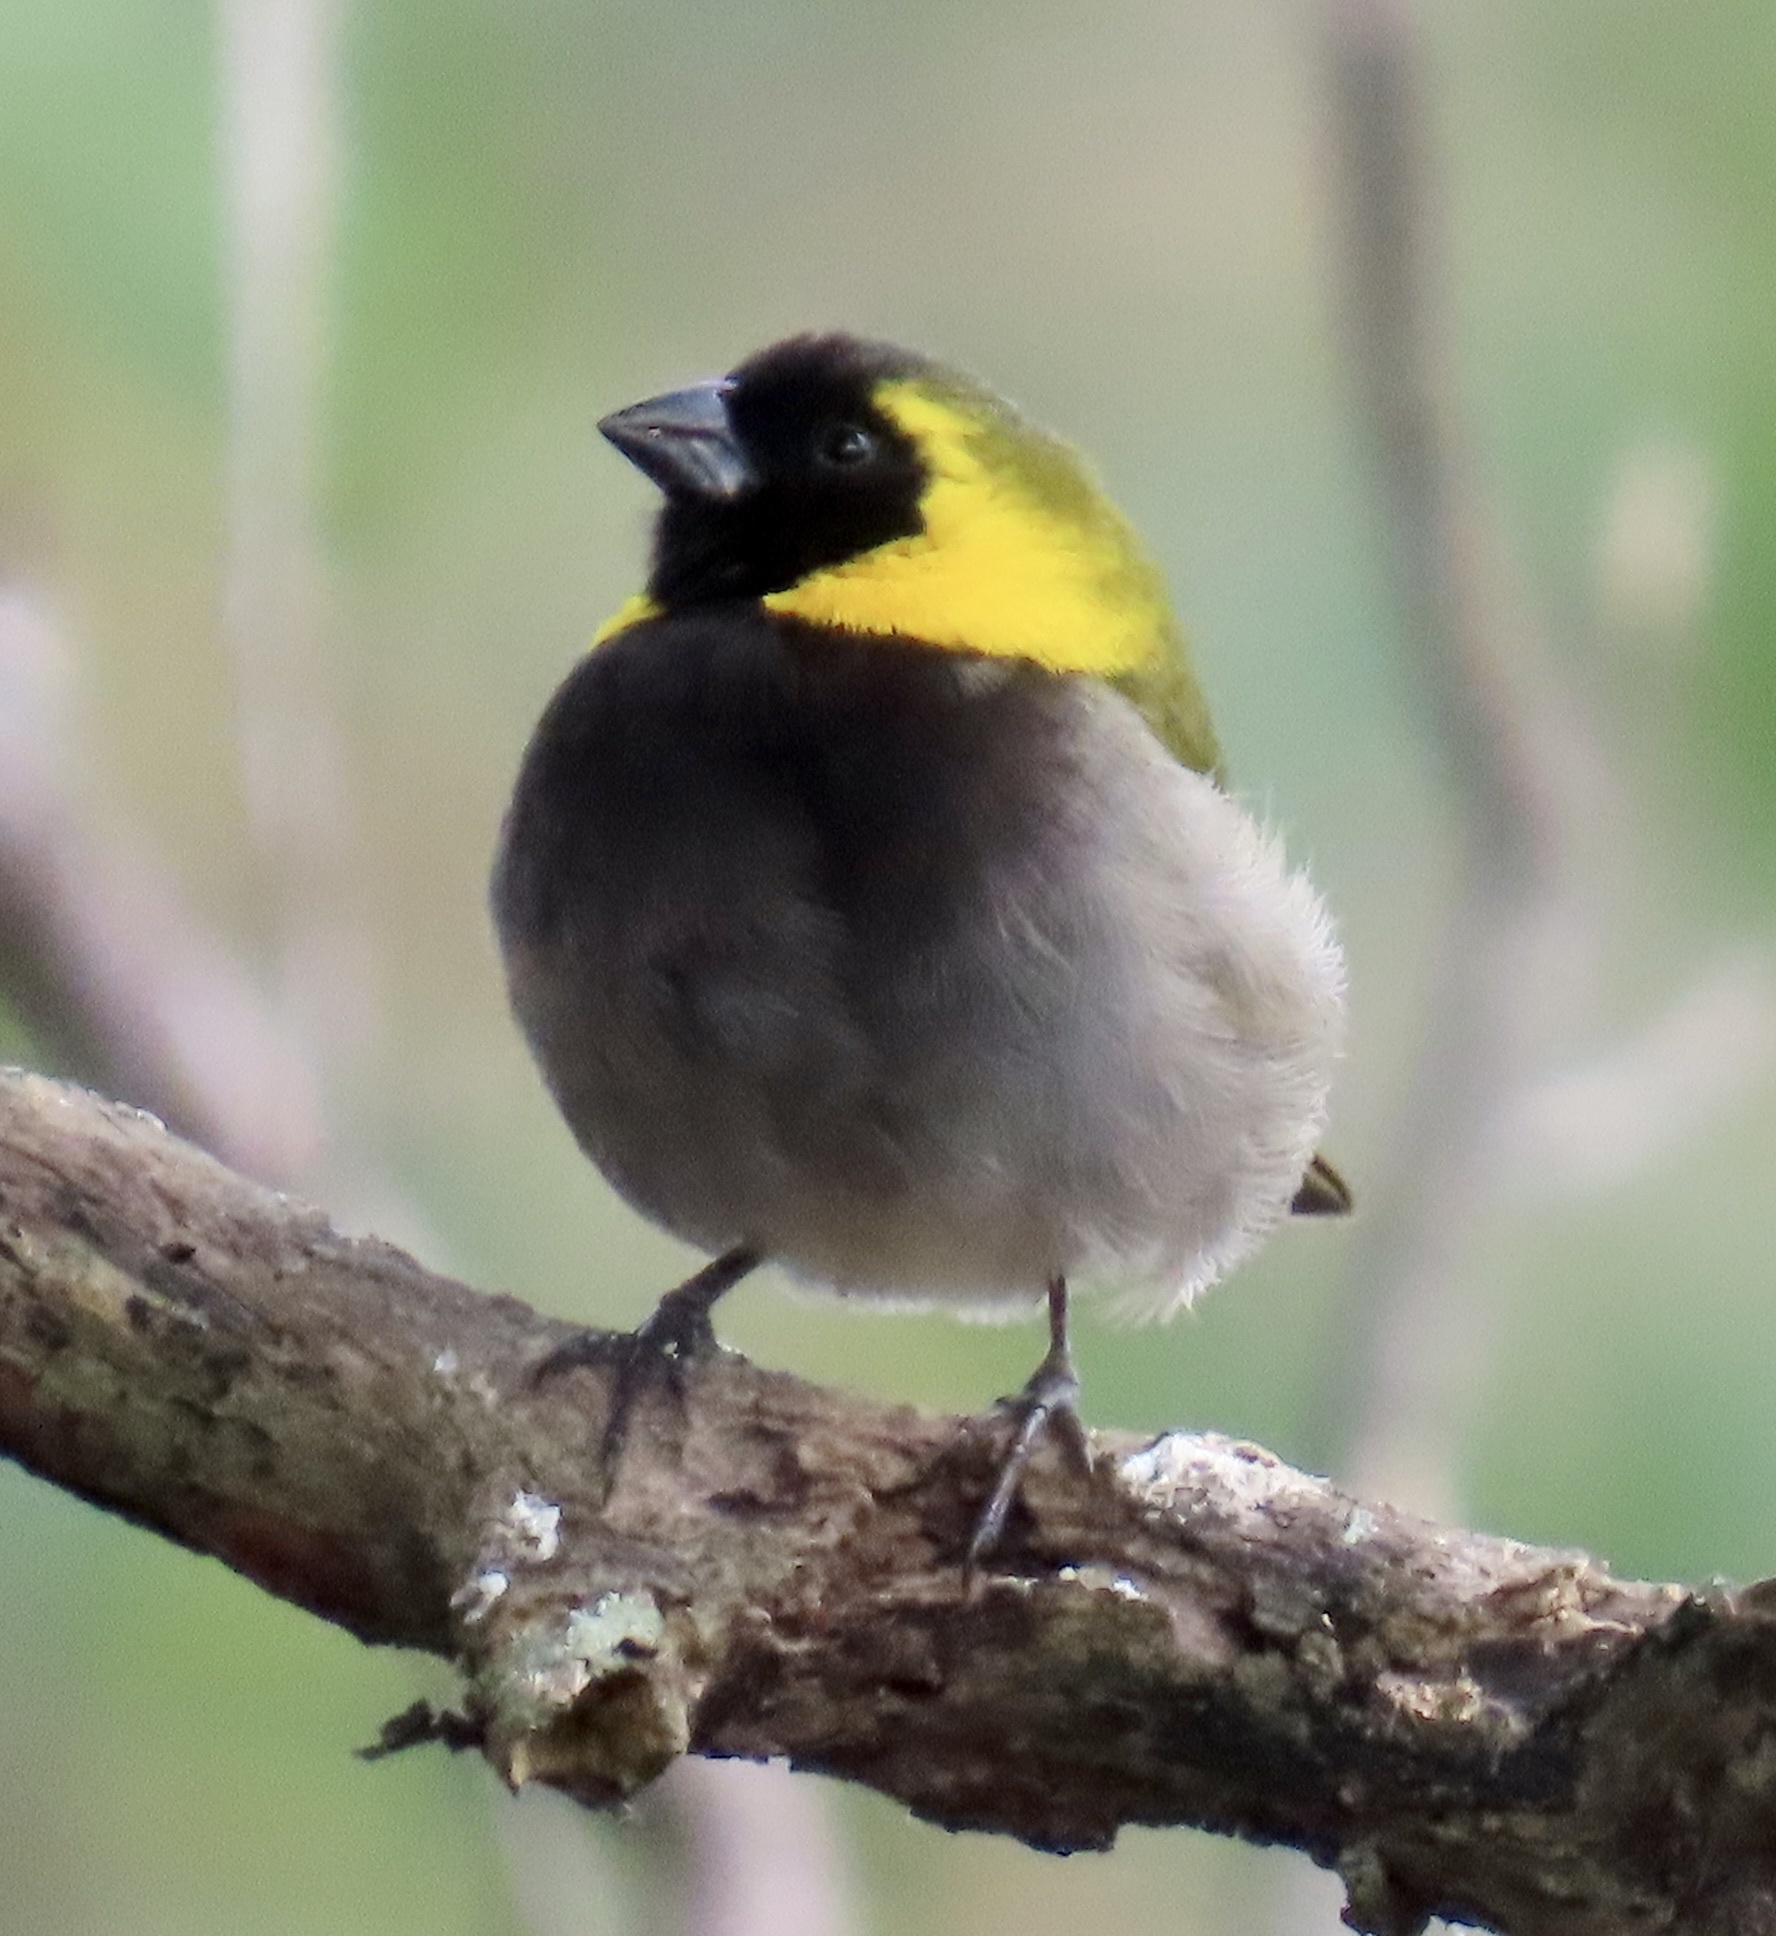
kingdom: Animalia
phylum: Chordata
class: Aves
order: Passeriformes
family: Thraupidae
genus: Phonipara
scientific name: Phonipara canora
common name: Cuban grassquit
